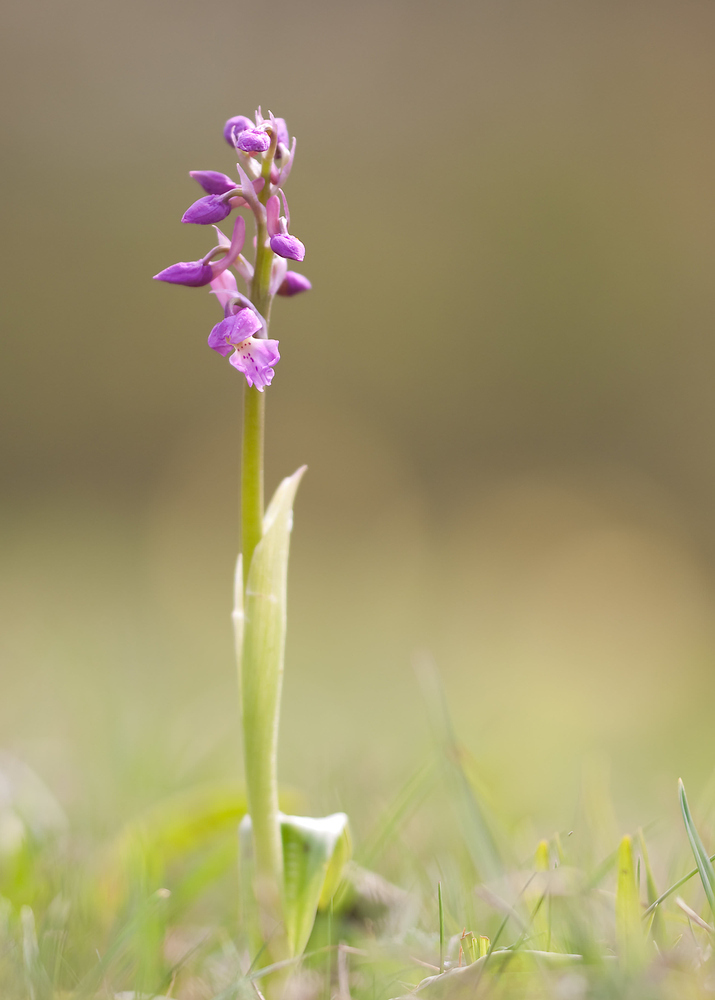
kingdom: Plantae
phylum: Tracheophyta
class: Liliopsida
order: Asparagales
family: Orchidaceae
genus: Orchis
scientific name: Orchis mascula
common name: Early-purple orchid
